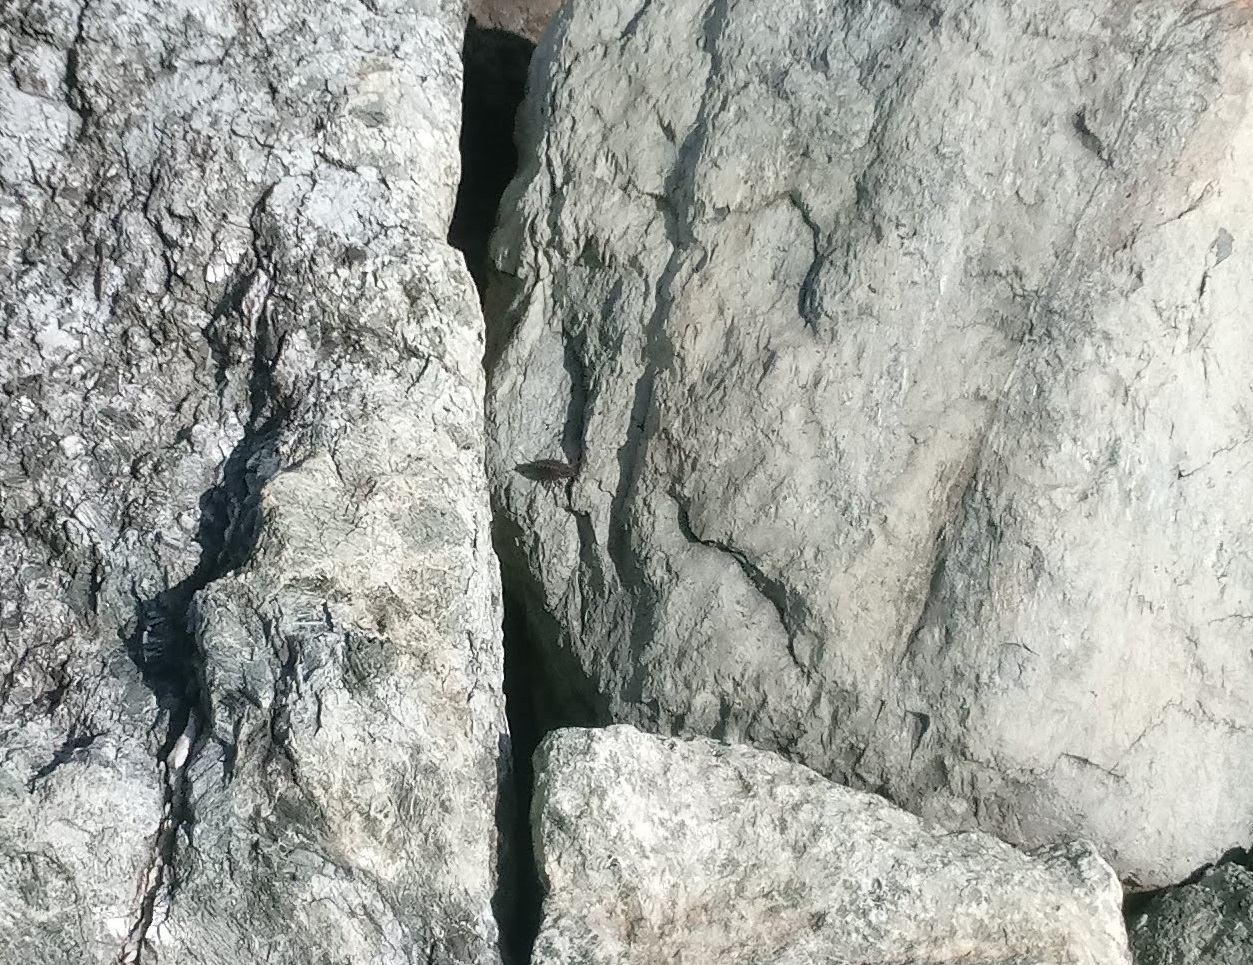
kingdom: Animalia
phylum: Arthropoda
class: Malacostraca
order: Isopoda
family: Ligiidae
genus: Ligia
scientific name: Ligia exotica
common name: Wharf roach
